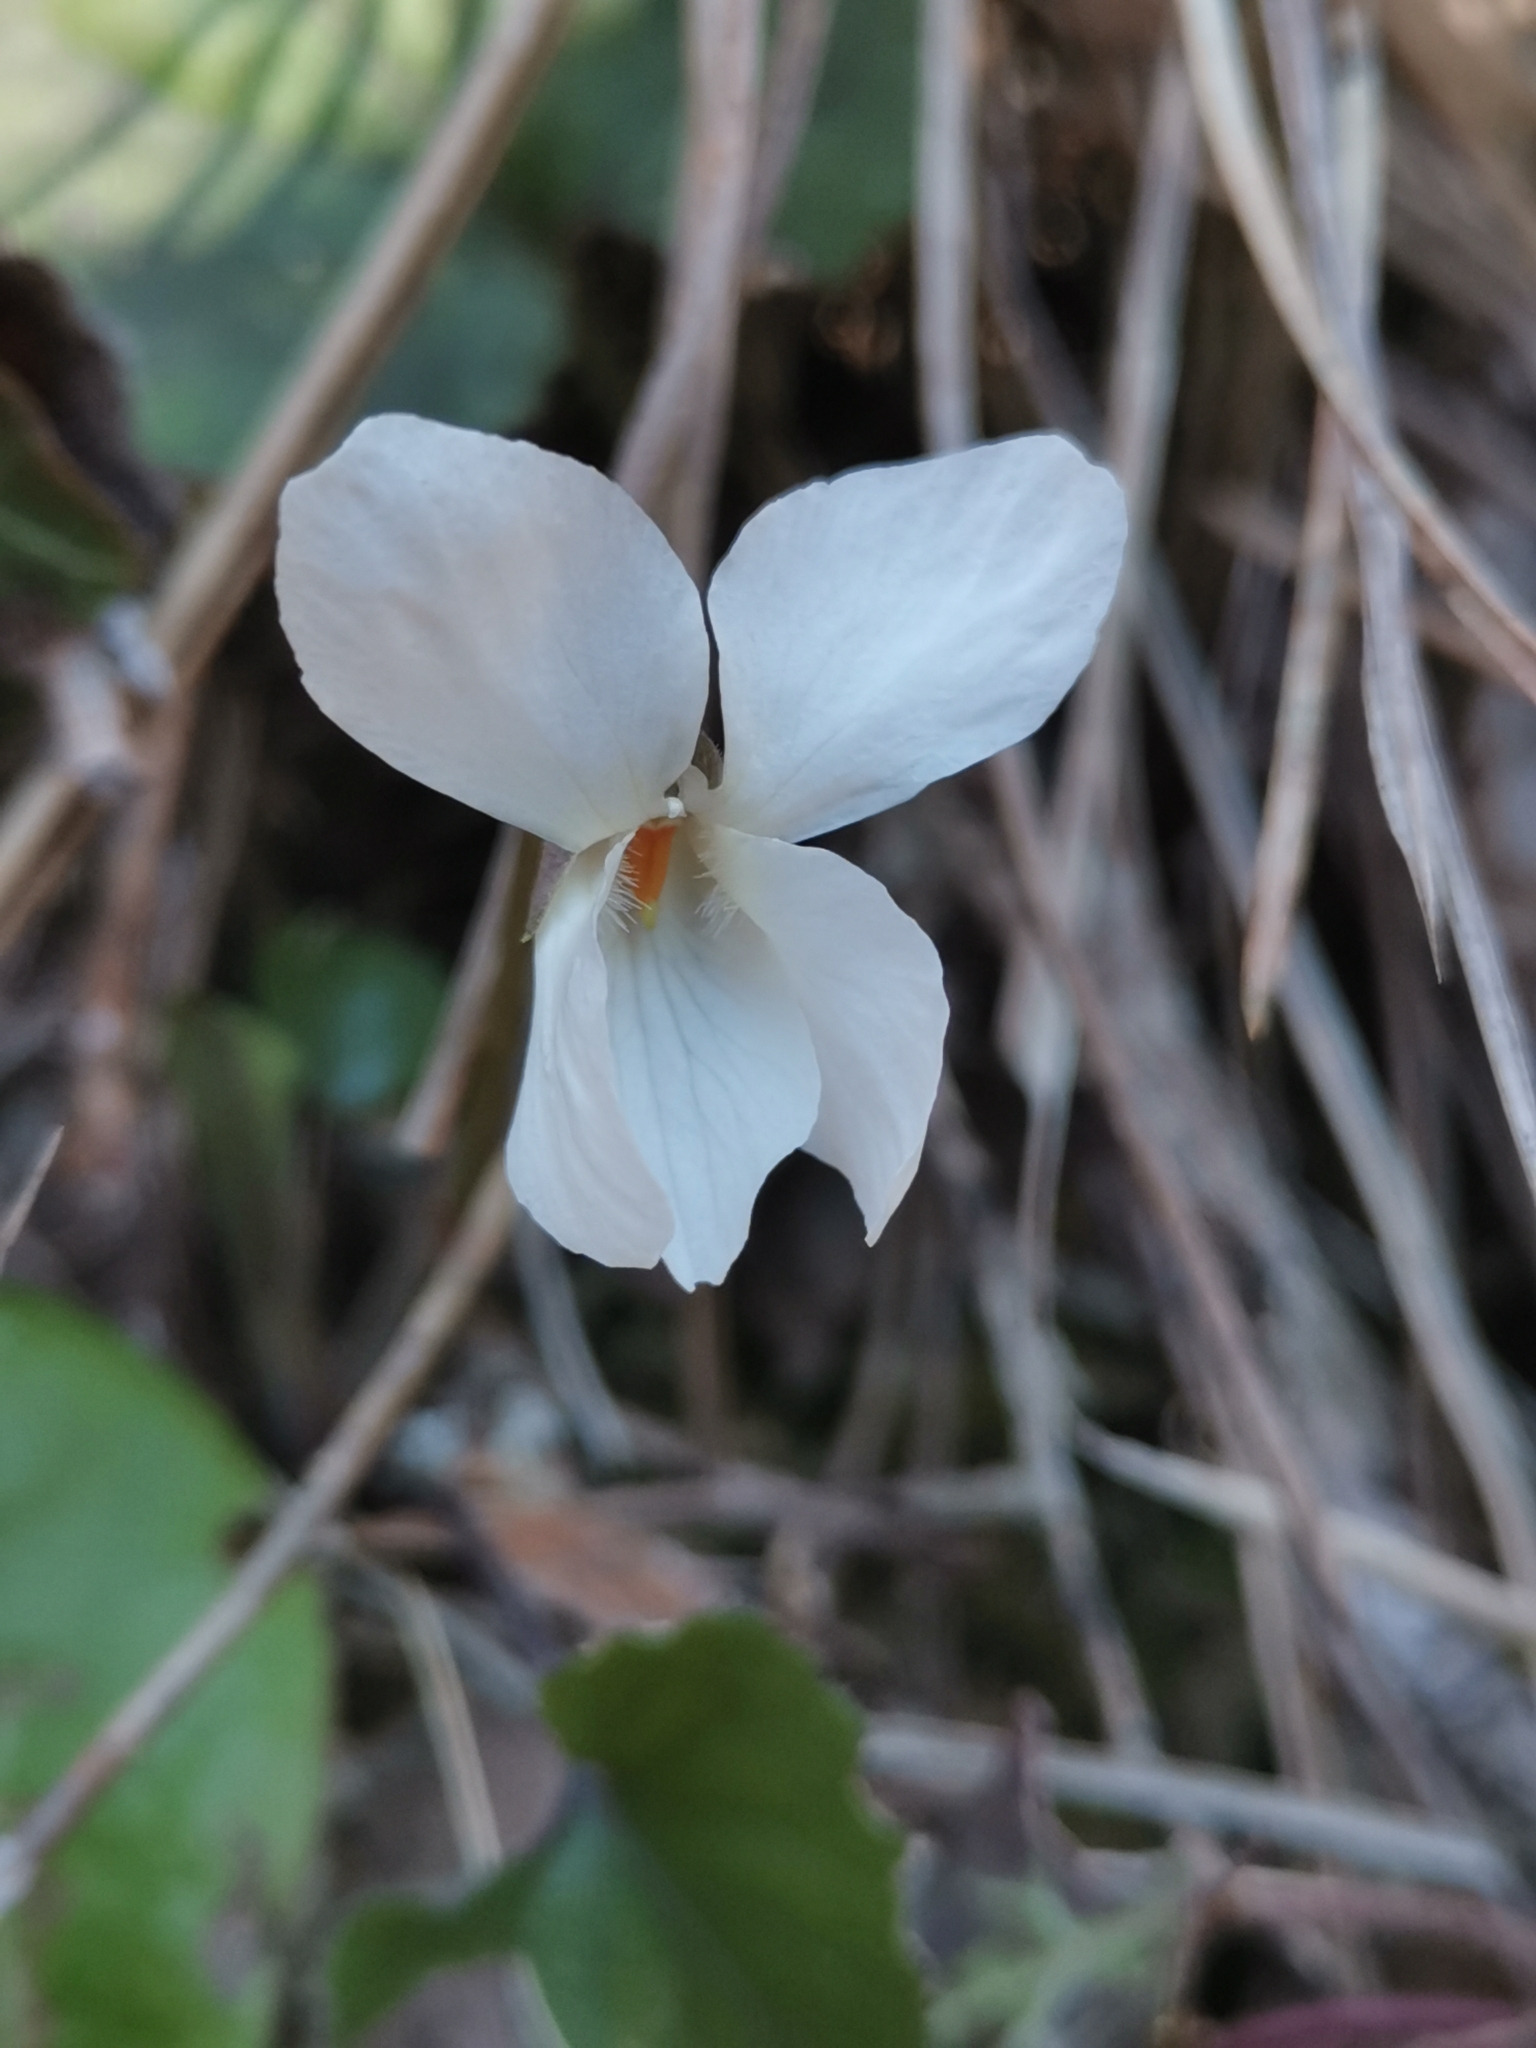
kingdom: Plantae
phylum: Tracheophyta
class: Magnoliopsida
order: Malpighiales
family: Violaceae
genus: Viola
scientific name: Viola alba
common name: White violet
